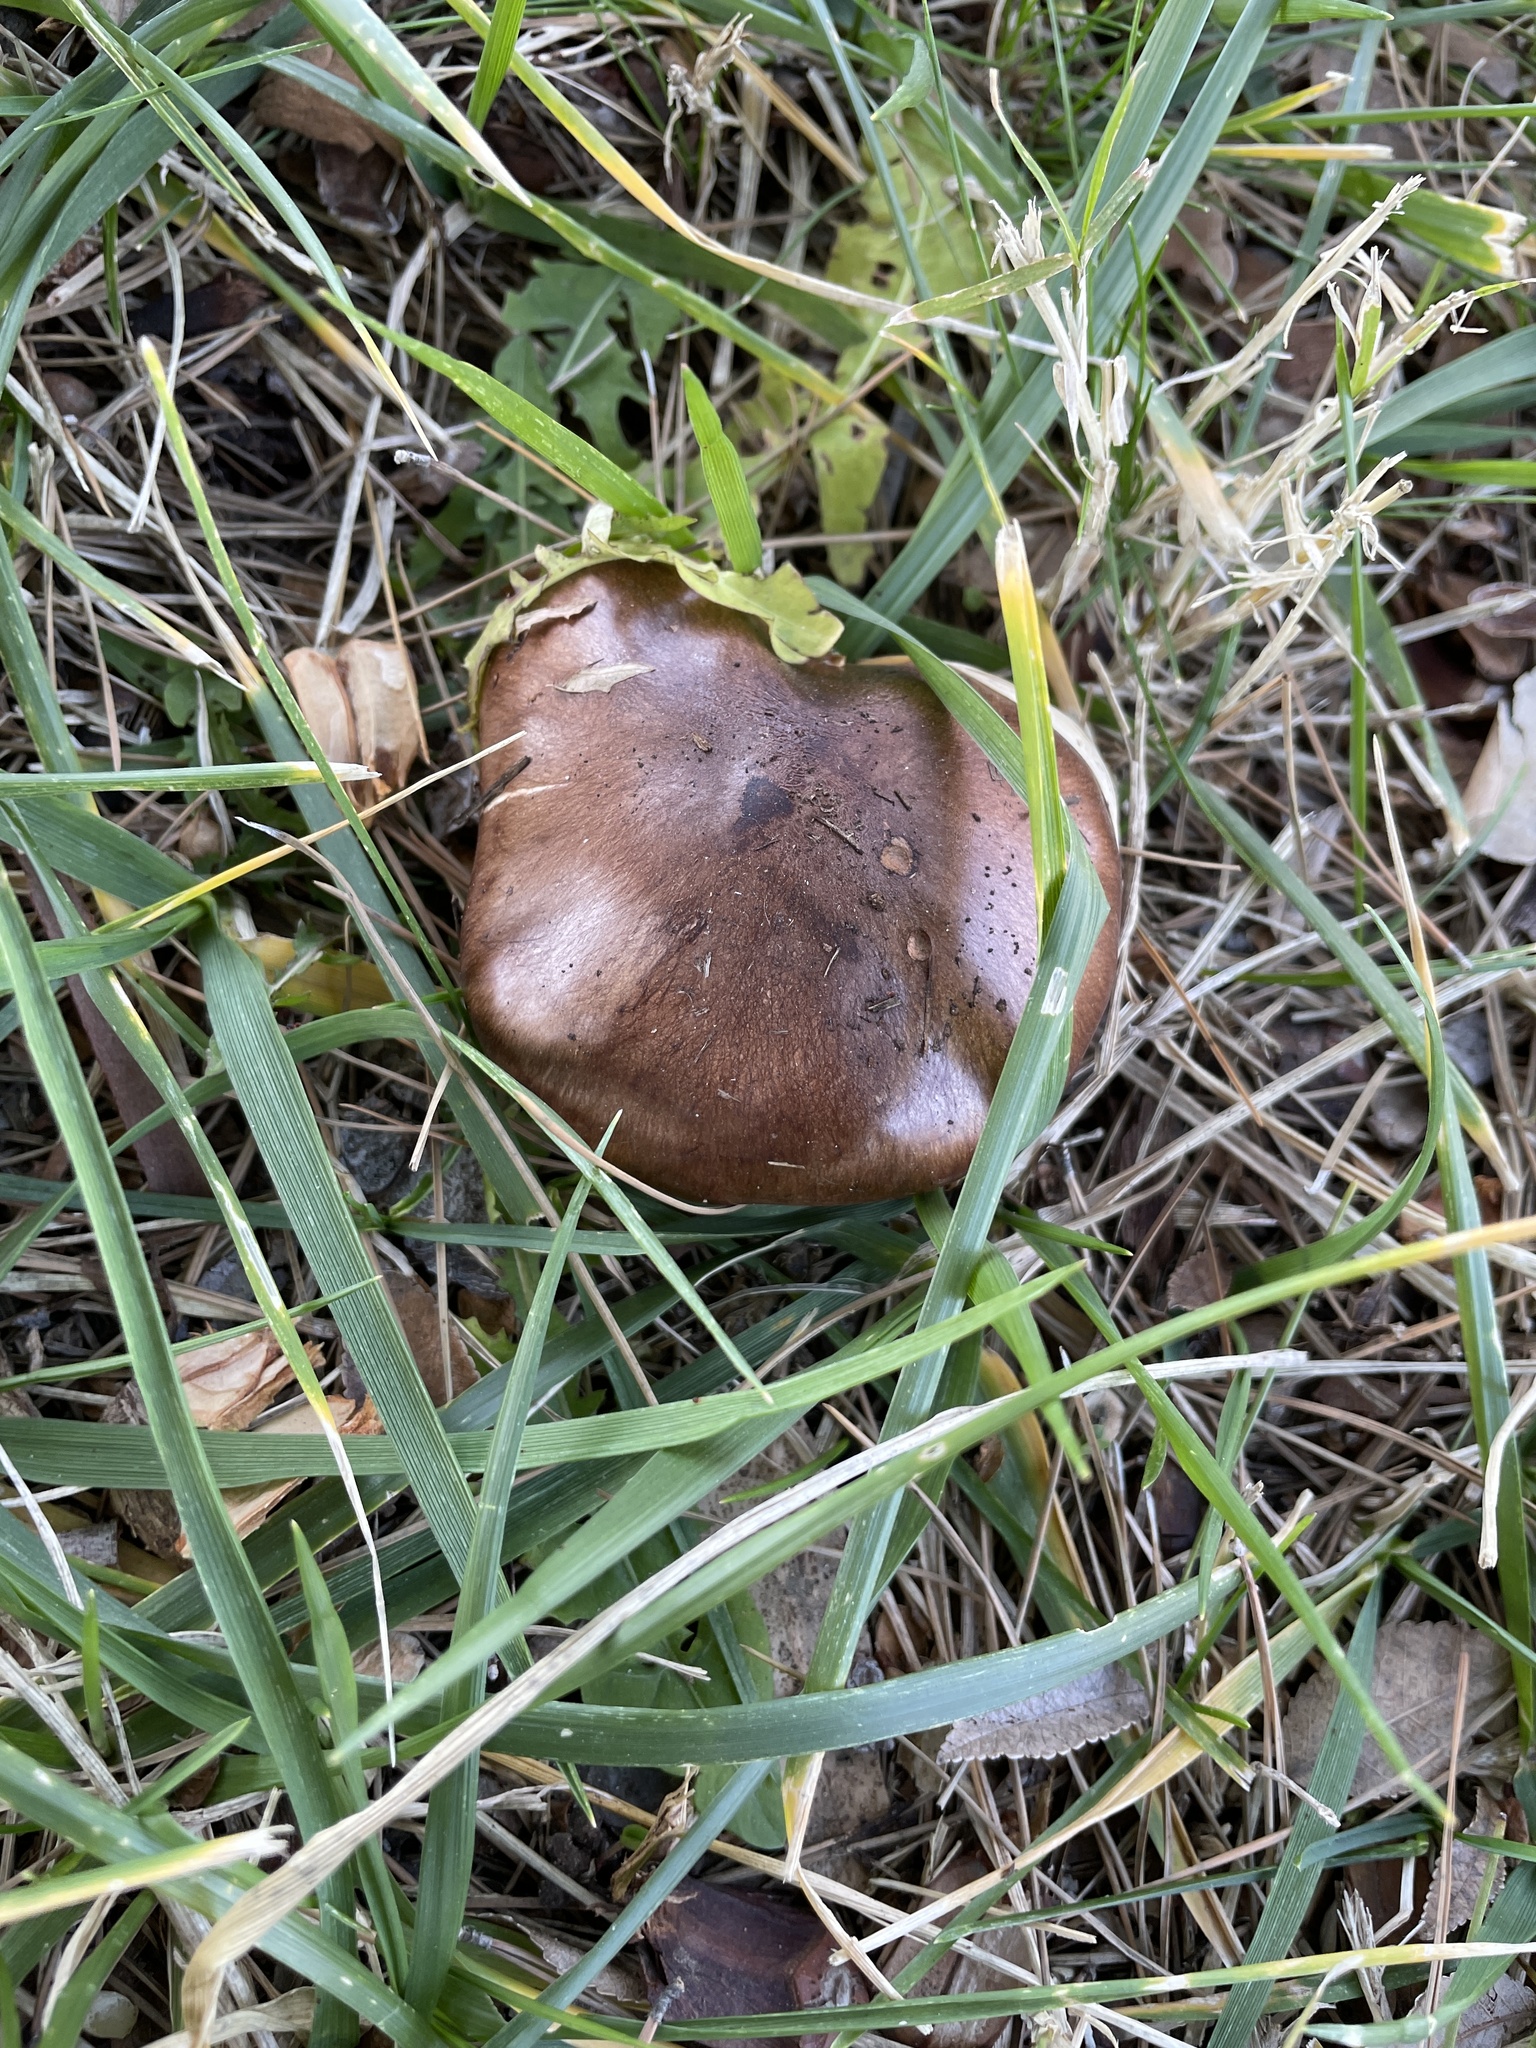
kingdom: Fungi
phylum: Basidiomycota
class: Agaricomycetes
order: Agaricales
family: Tricholomataceae
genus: Tricholoma
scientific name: Tricholoma fracticum
